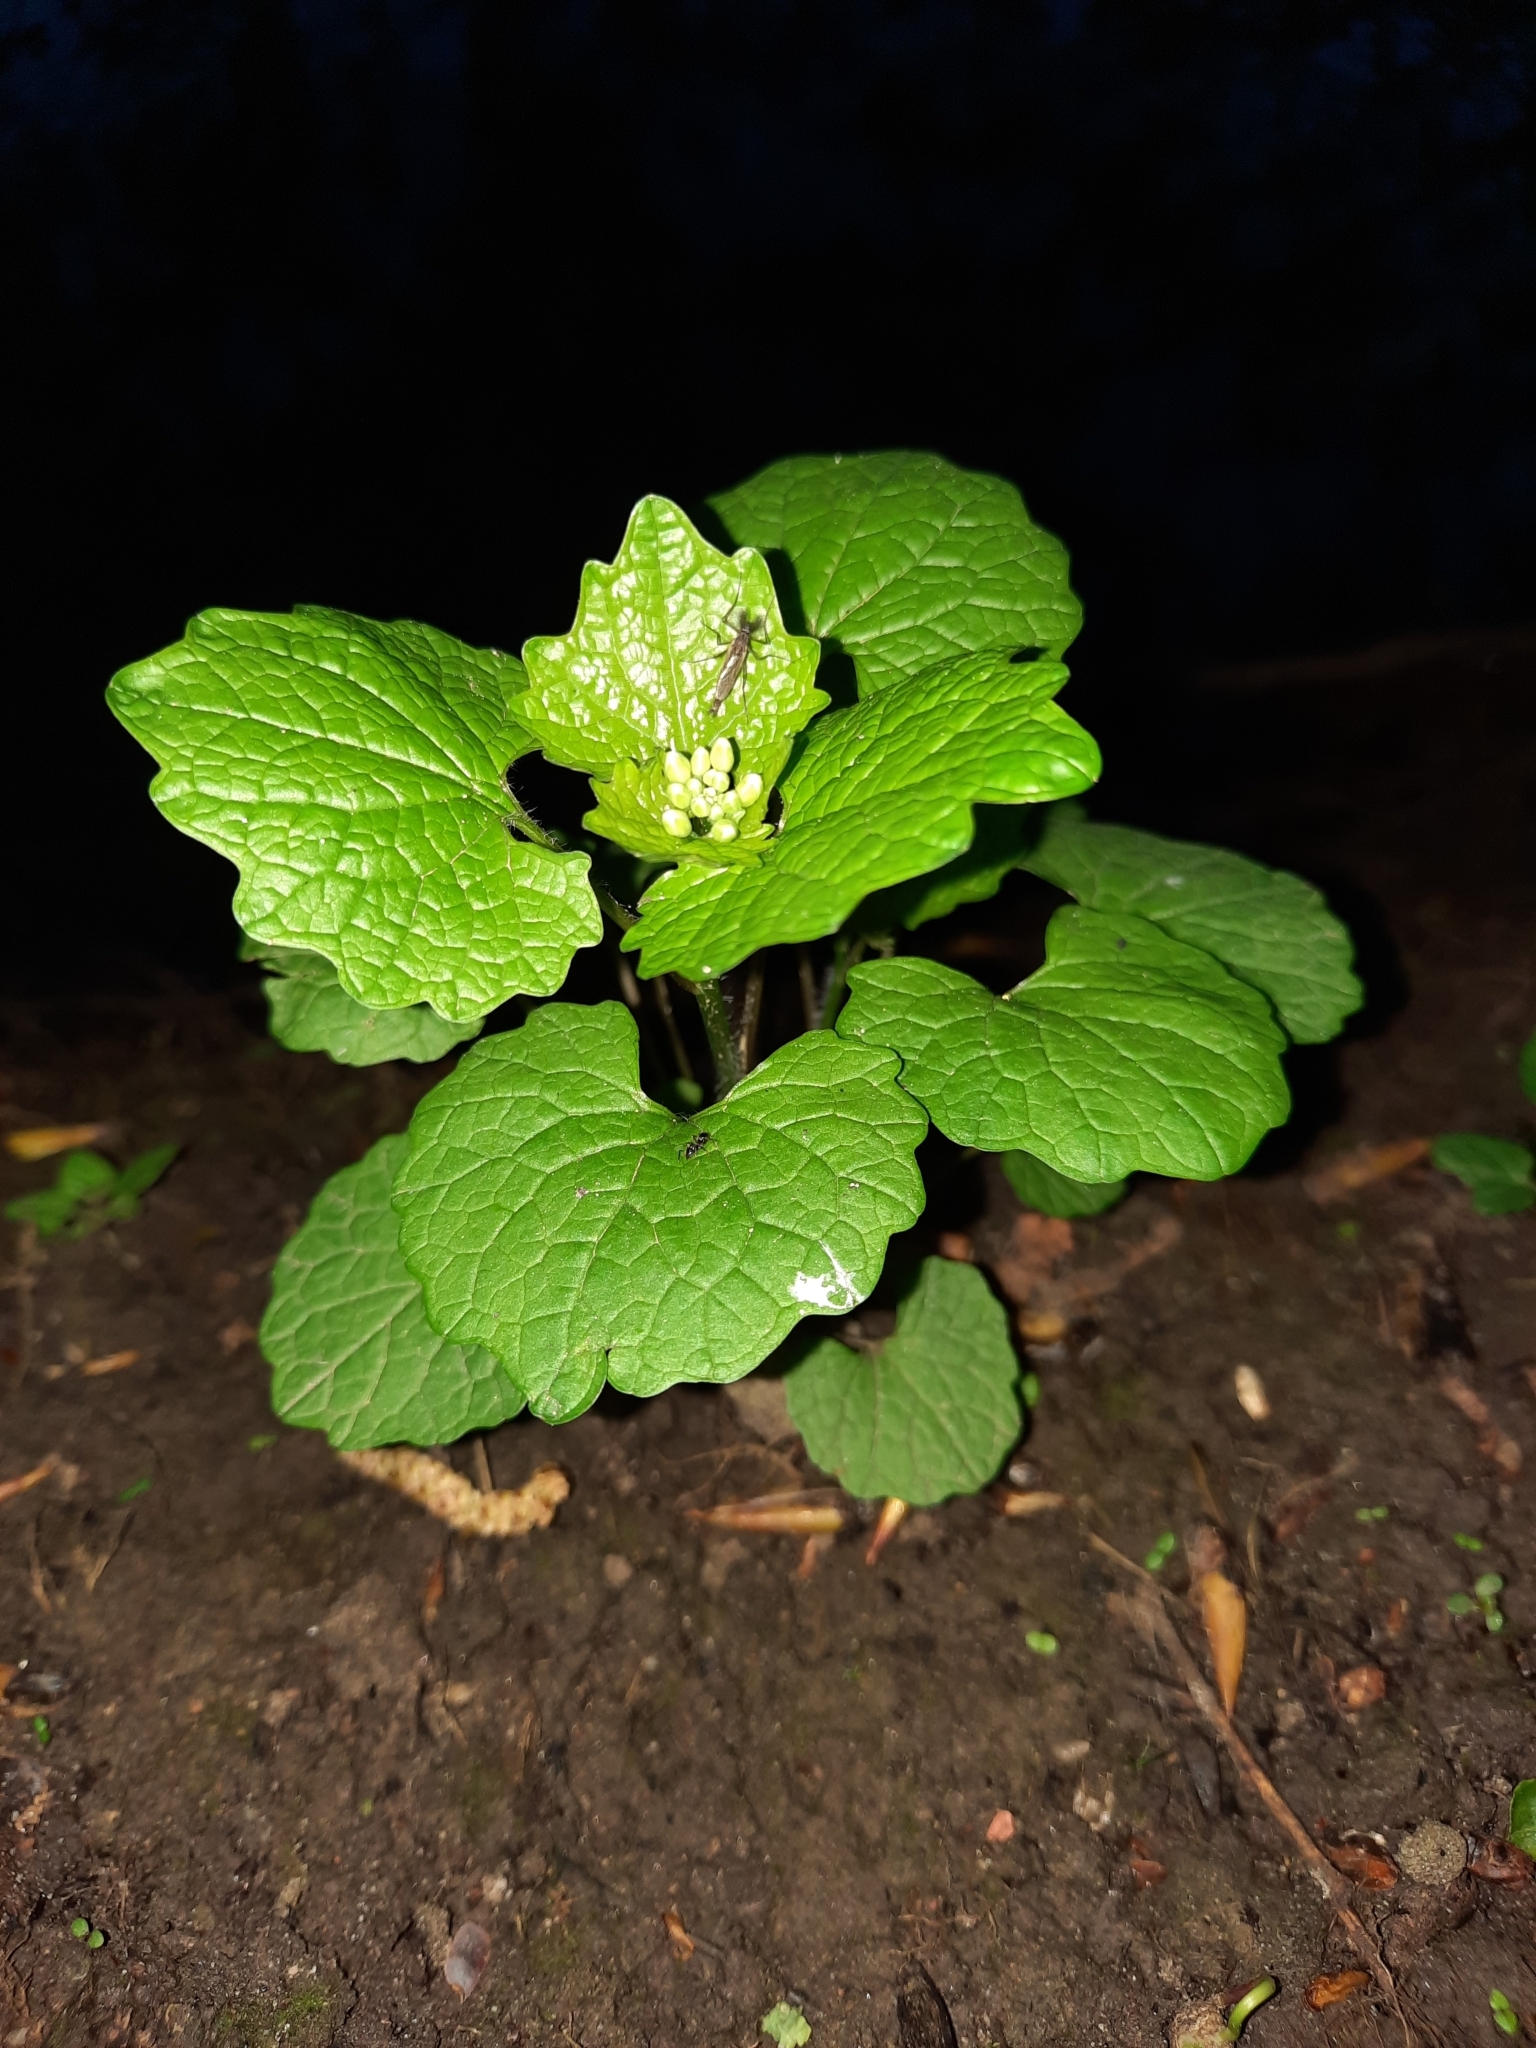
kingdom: Plantae
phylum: Tracheophyta
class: Magnoliopsida
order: Brassicales
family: Brassicaceae
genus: Alliaria
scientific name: Alliaria petiolata
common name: Garlic mustard
